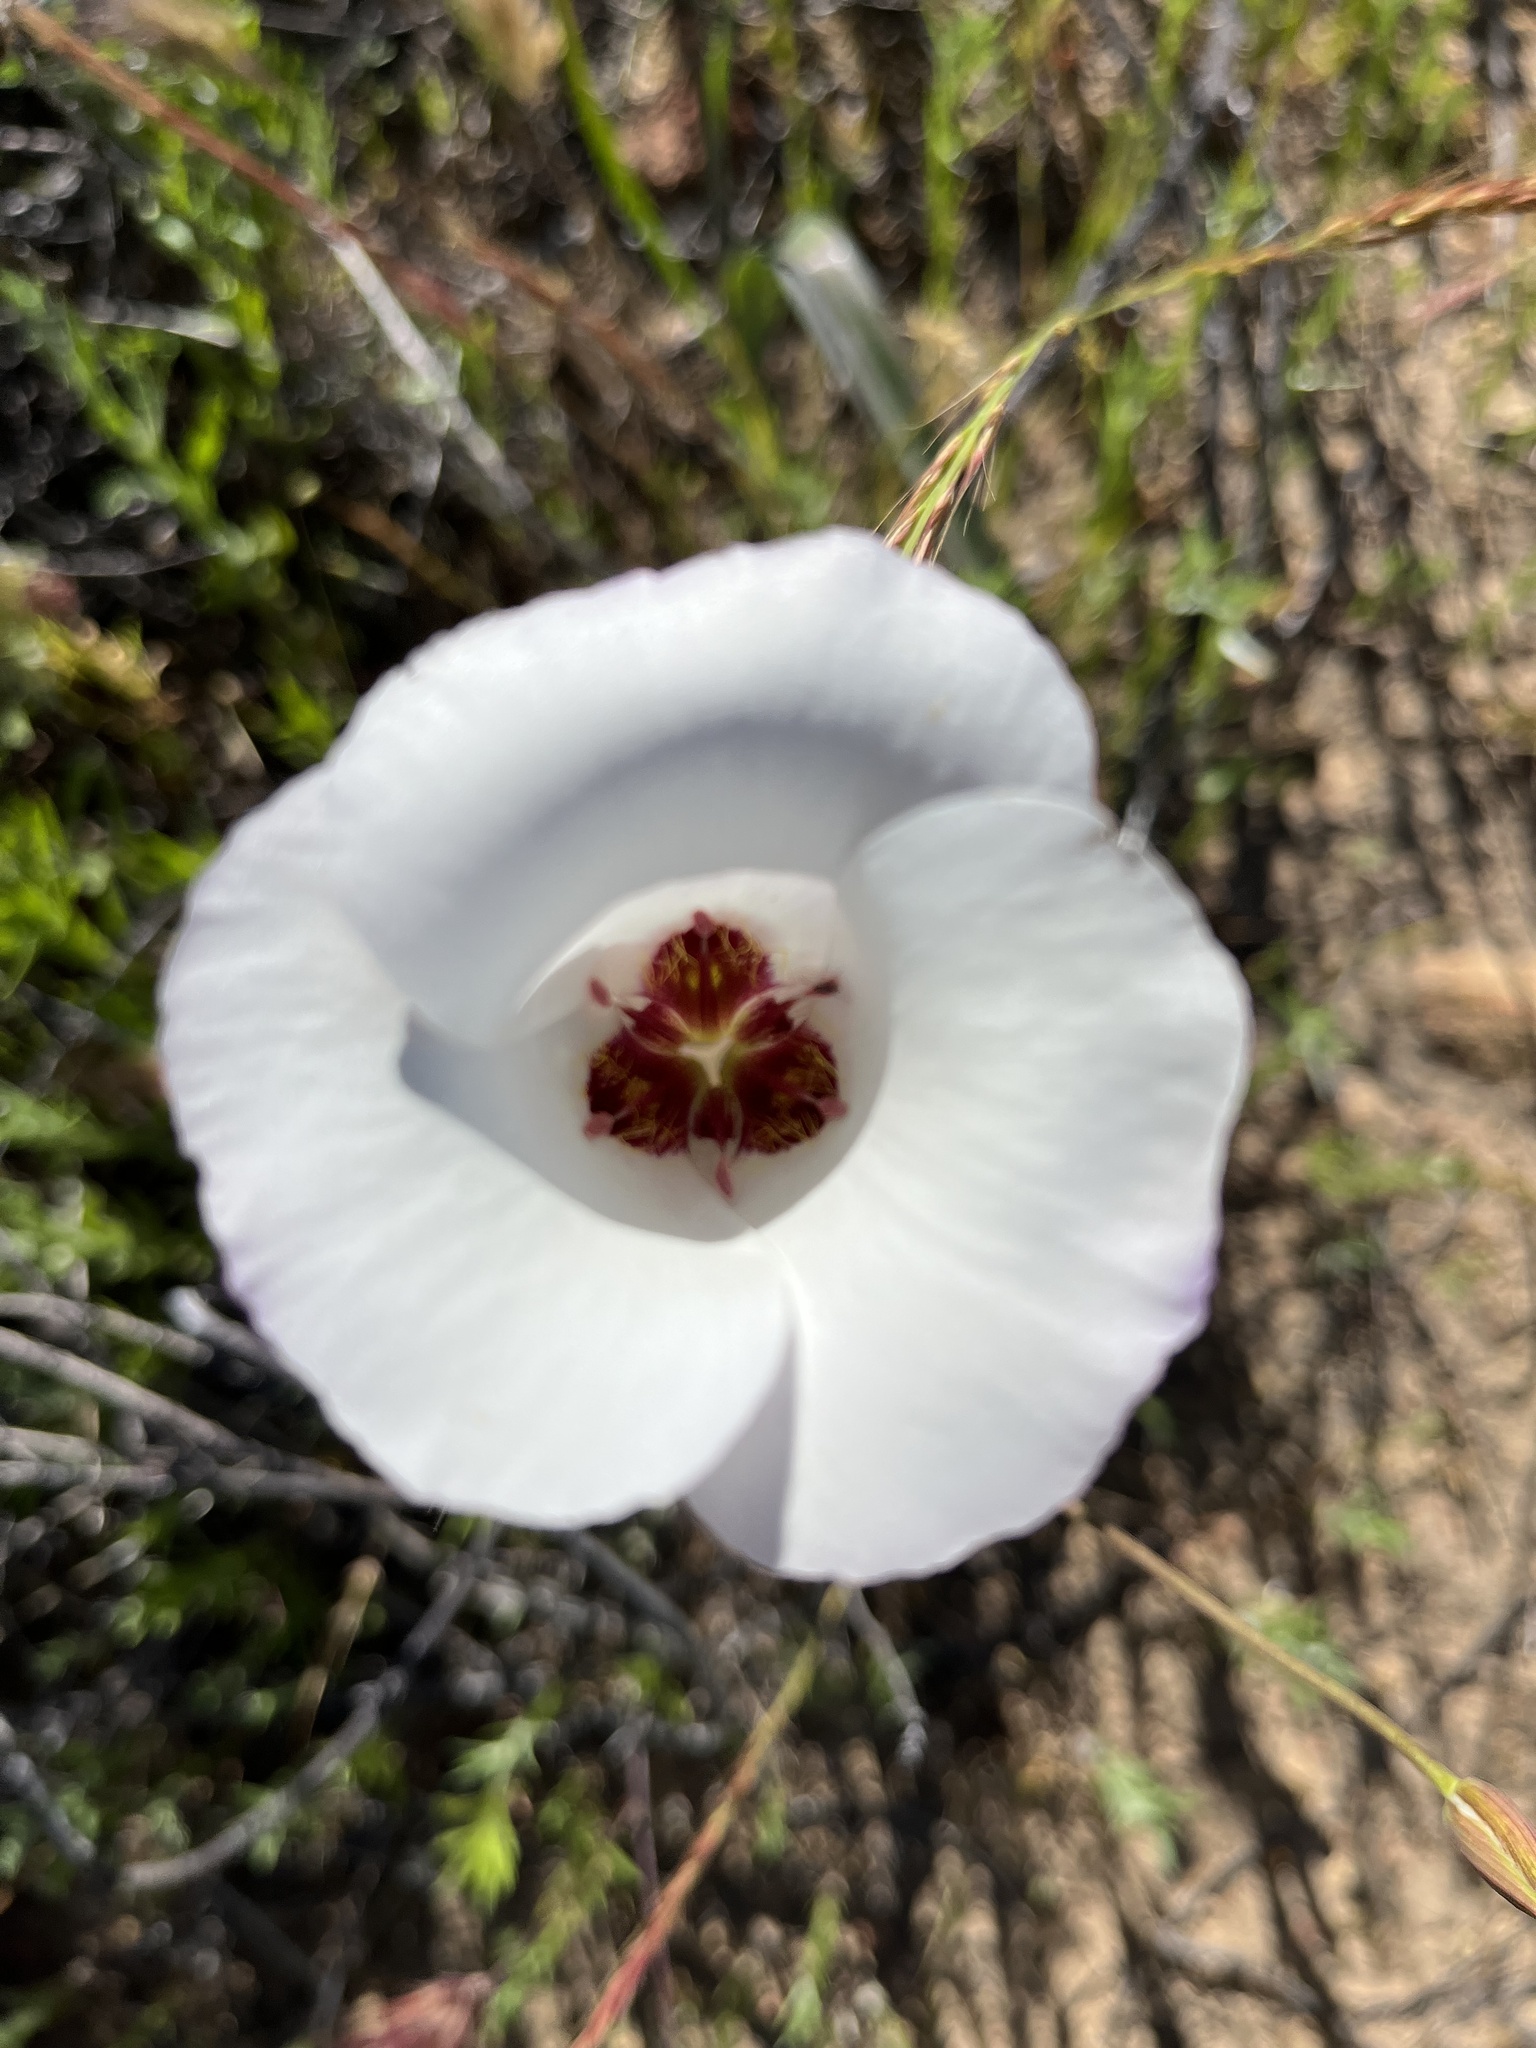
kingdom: Plantae
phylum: Tracheophyta
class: Liliopsida
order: Liliales
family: Liliaceae
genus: Calochortus
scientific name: Calochortus catalinae
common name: Catalina mariposa-lily
